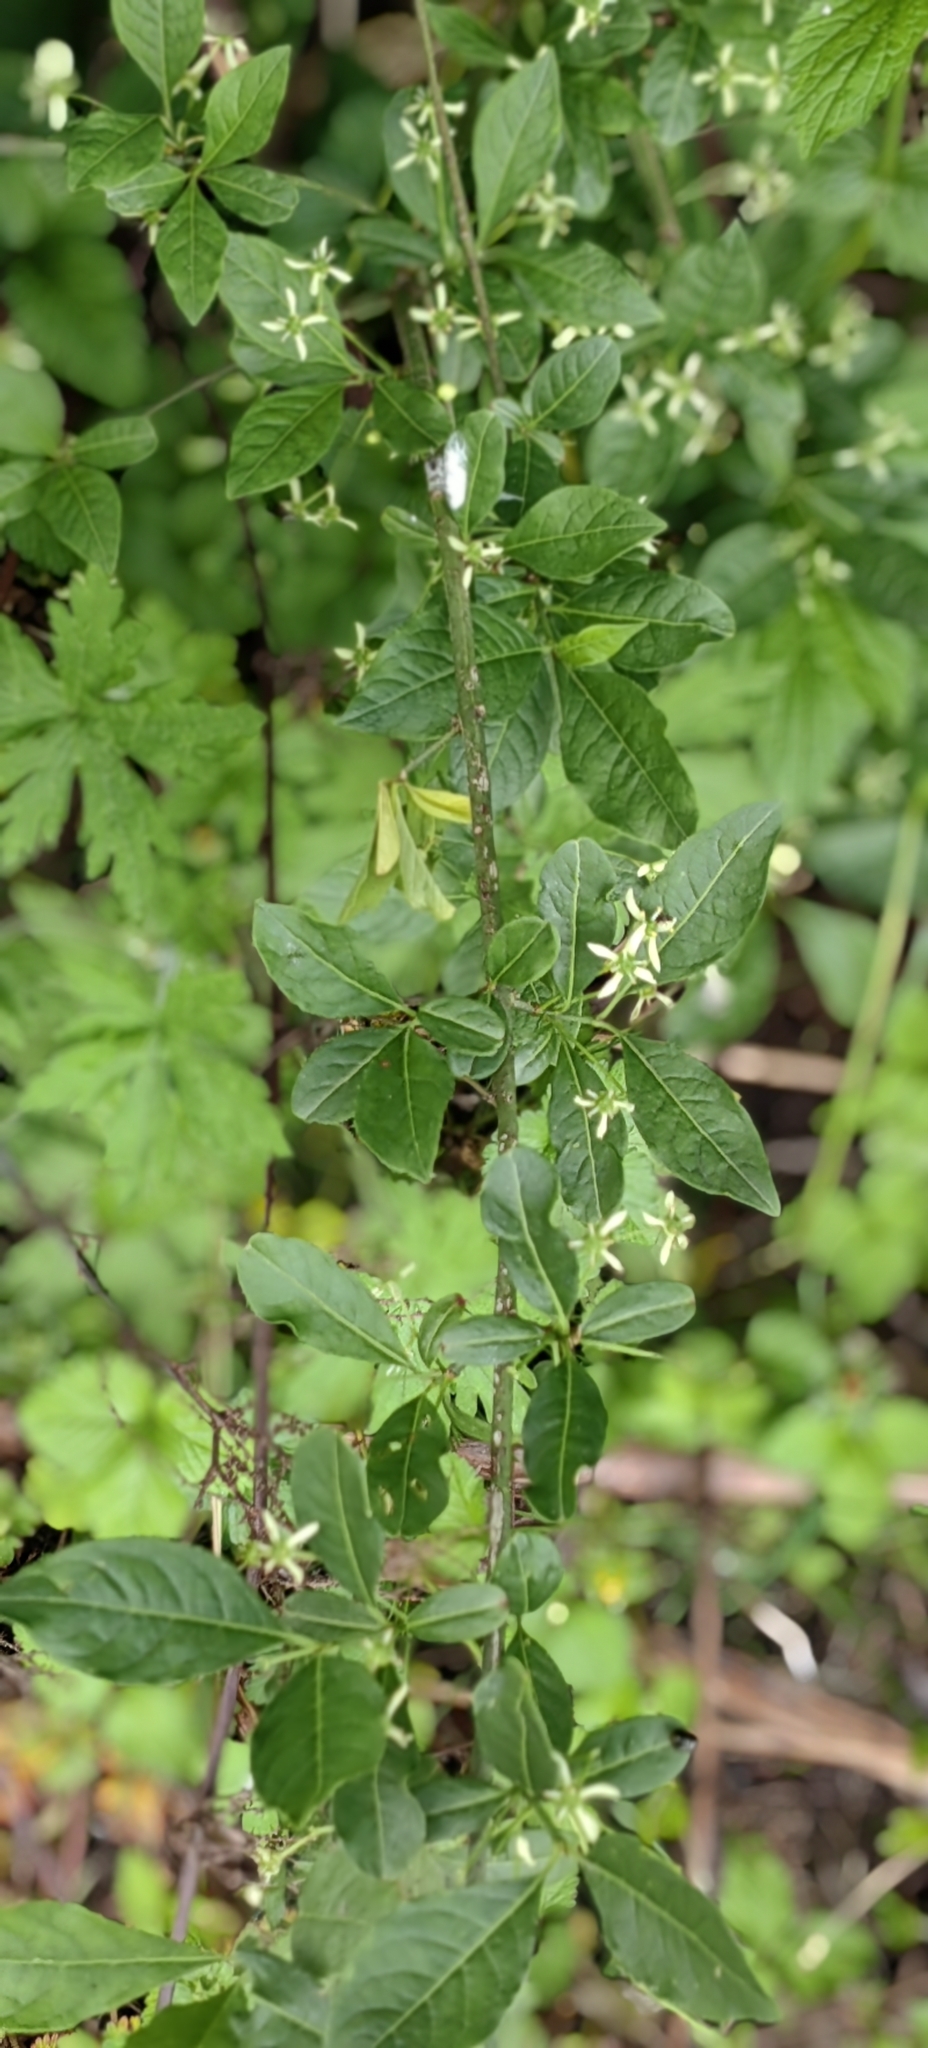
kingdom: Plantae
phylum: Tracheophyta
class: Magnoliopsida
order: Celastrales
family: Celastraceae
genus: Euonymus
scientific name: Euonymus europaeus
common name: Spindle
